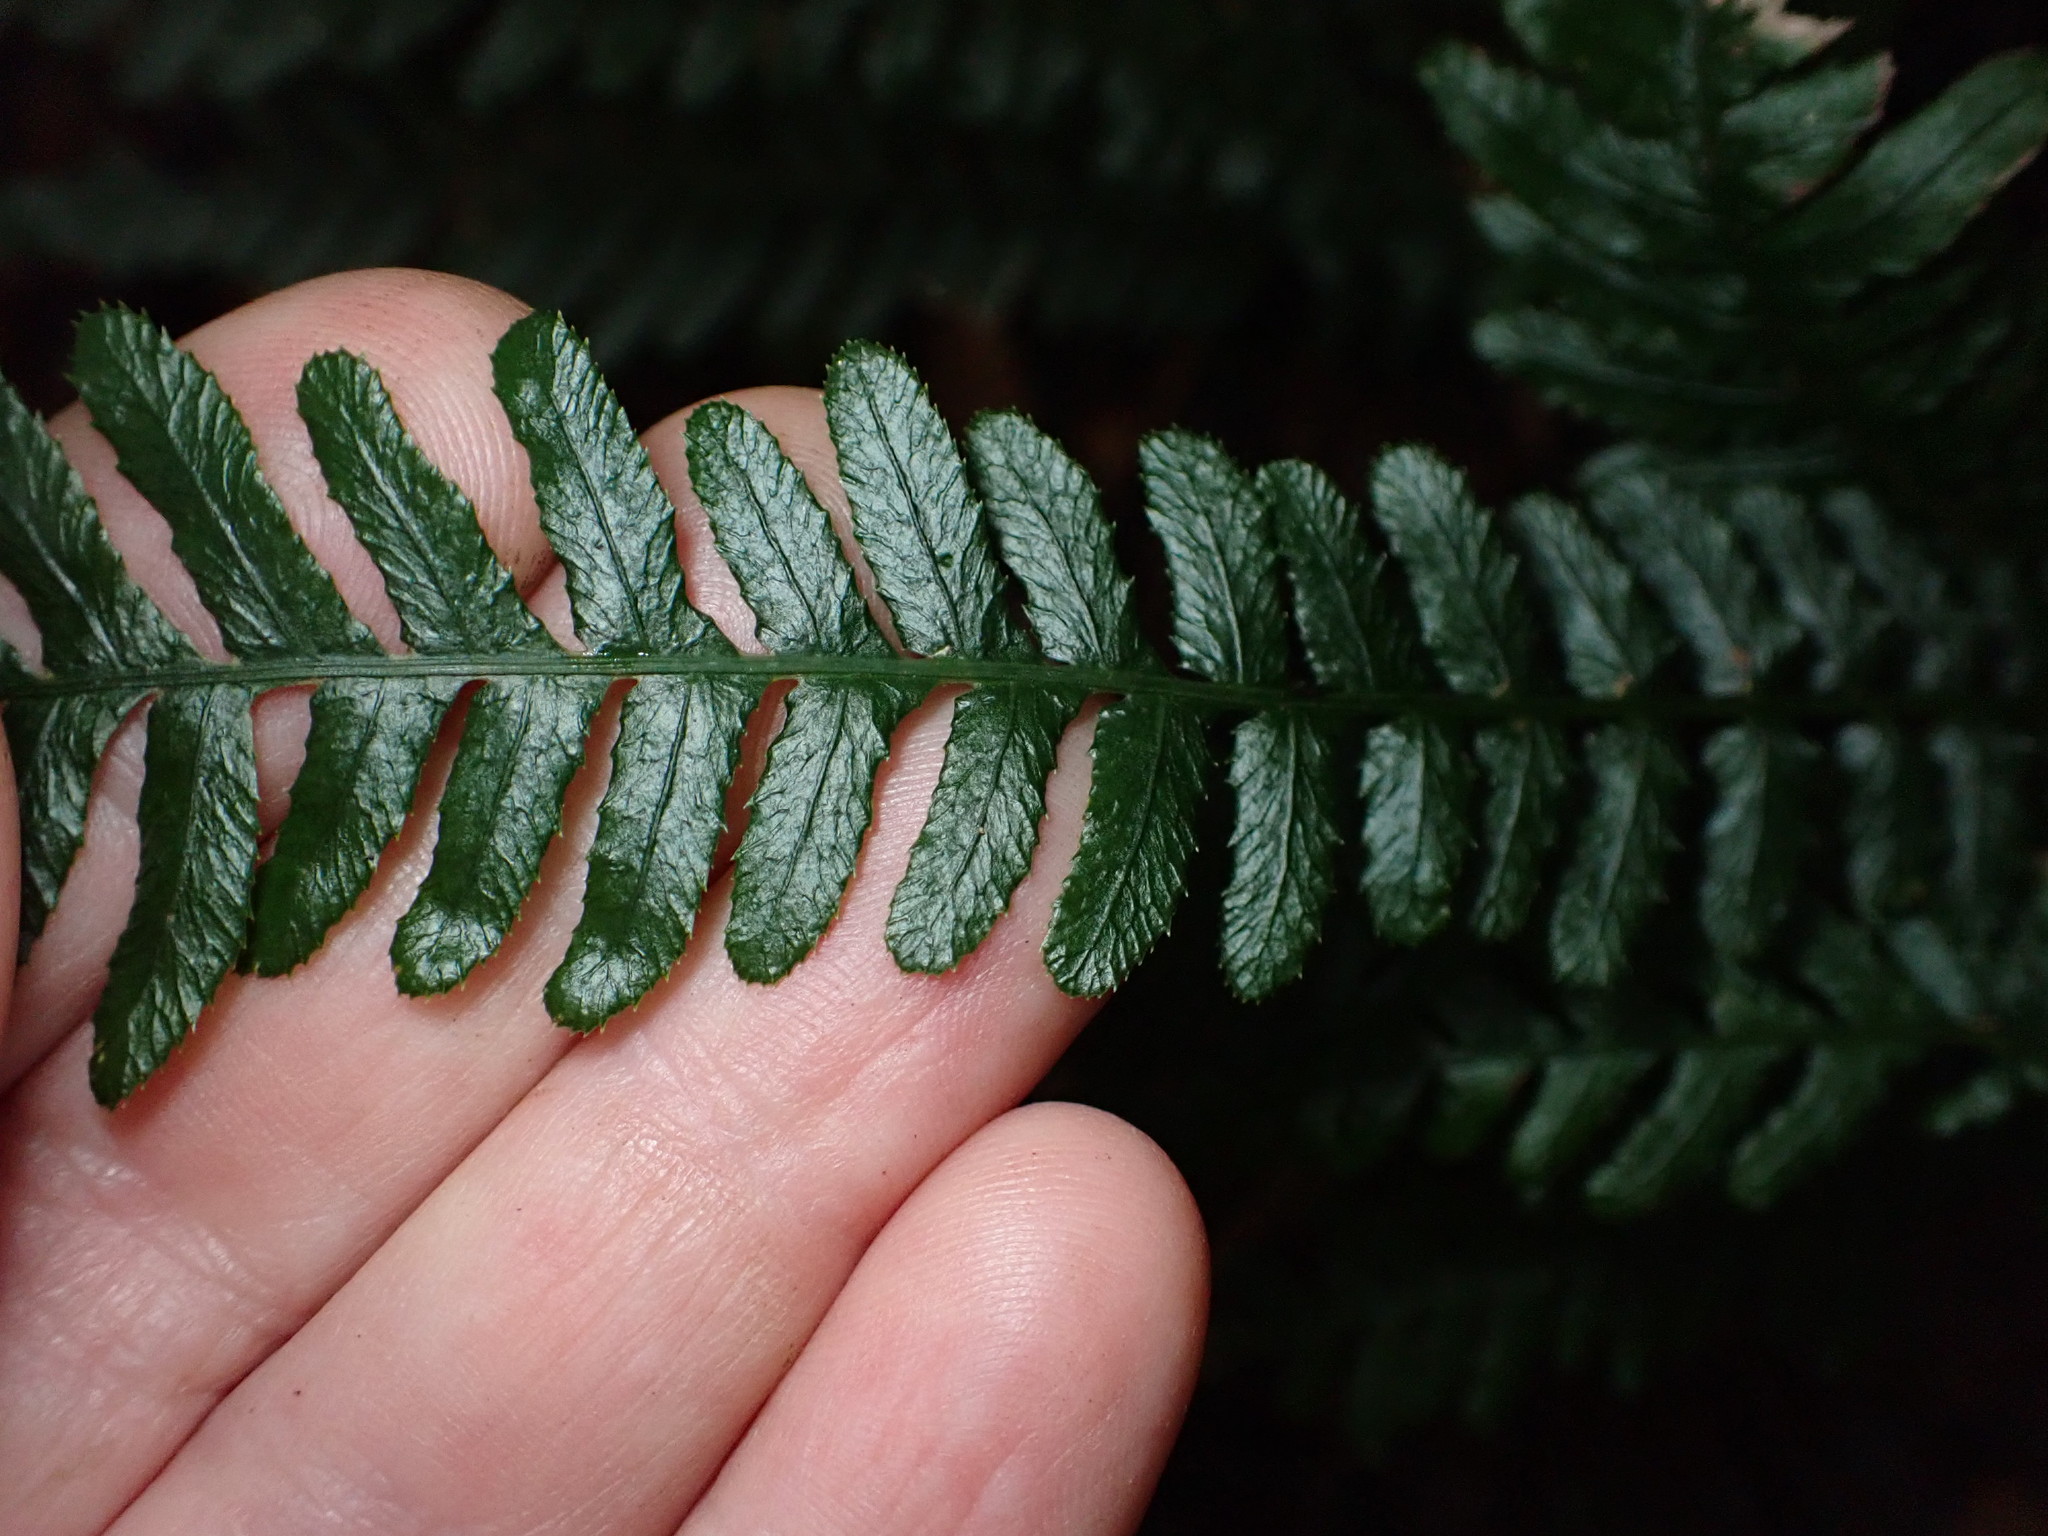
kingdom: Plantae
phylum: Tracheophyta
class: Polypodiopsida
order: Polypodiales
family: Blechnaceae
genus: Doodia
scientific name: Doodia australis
